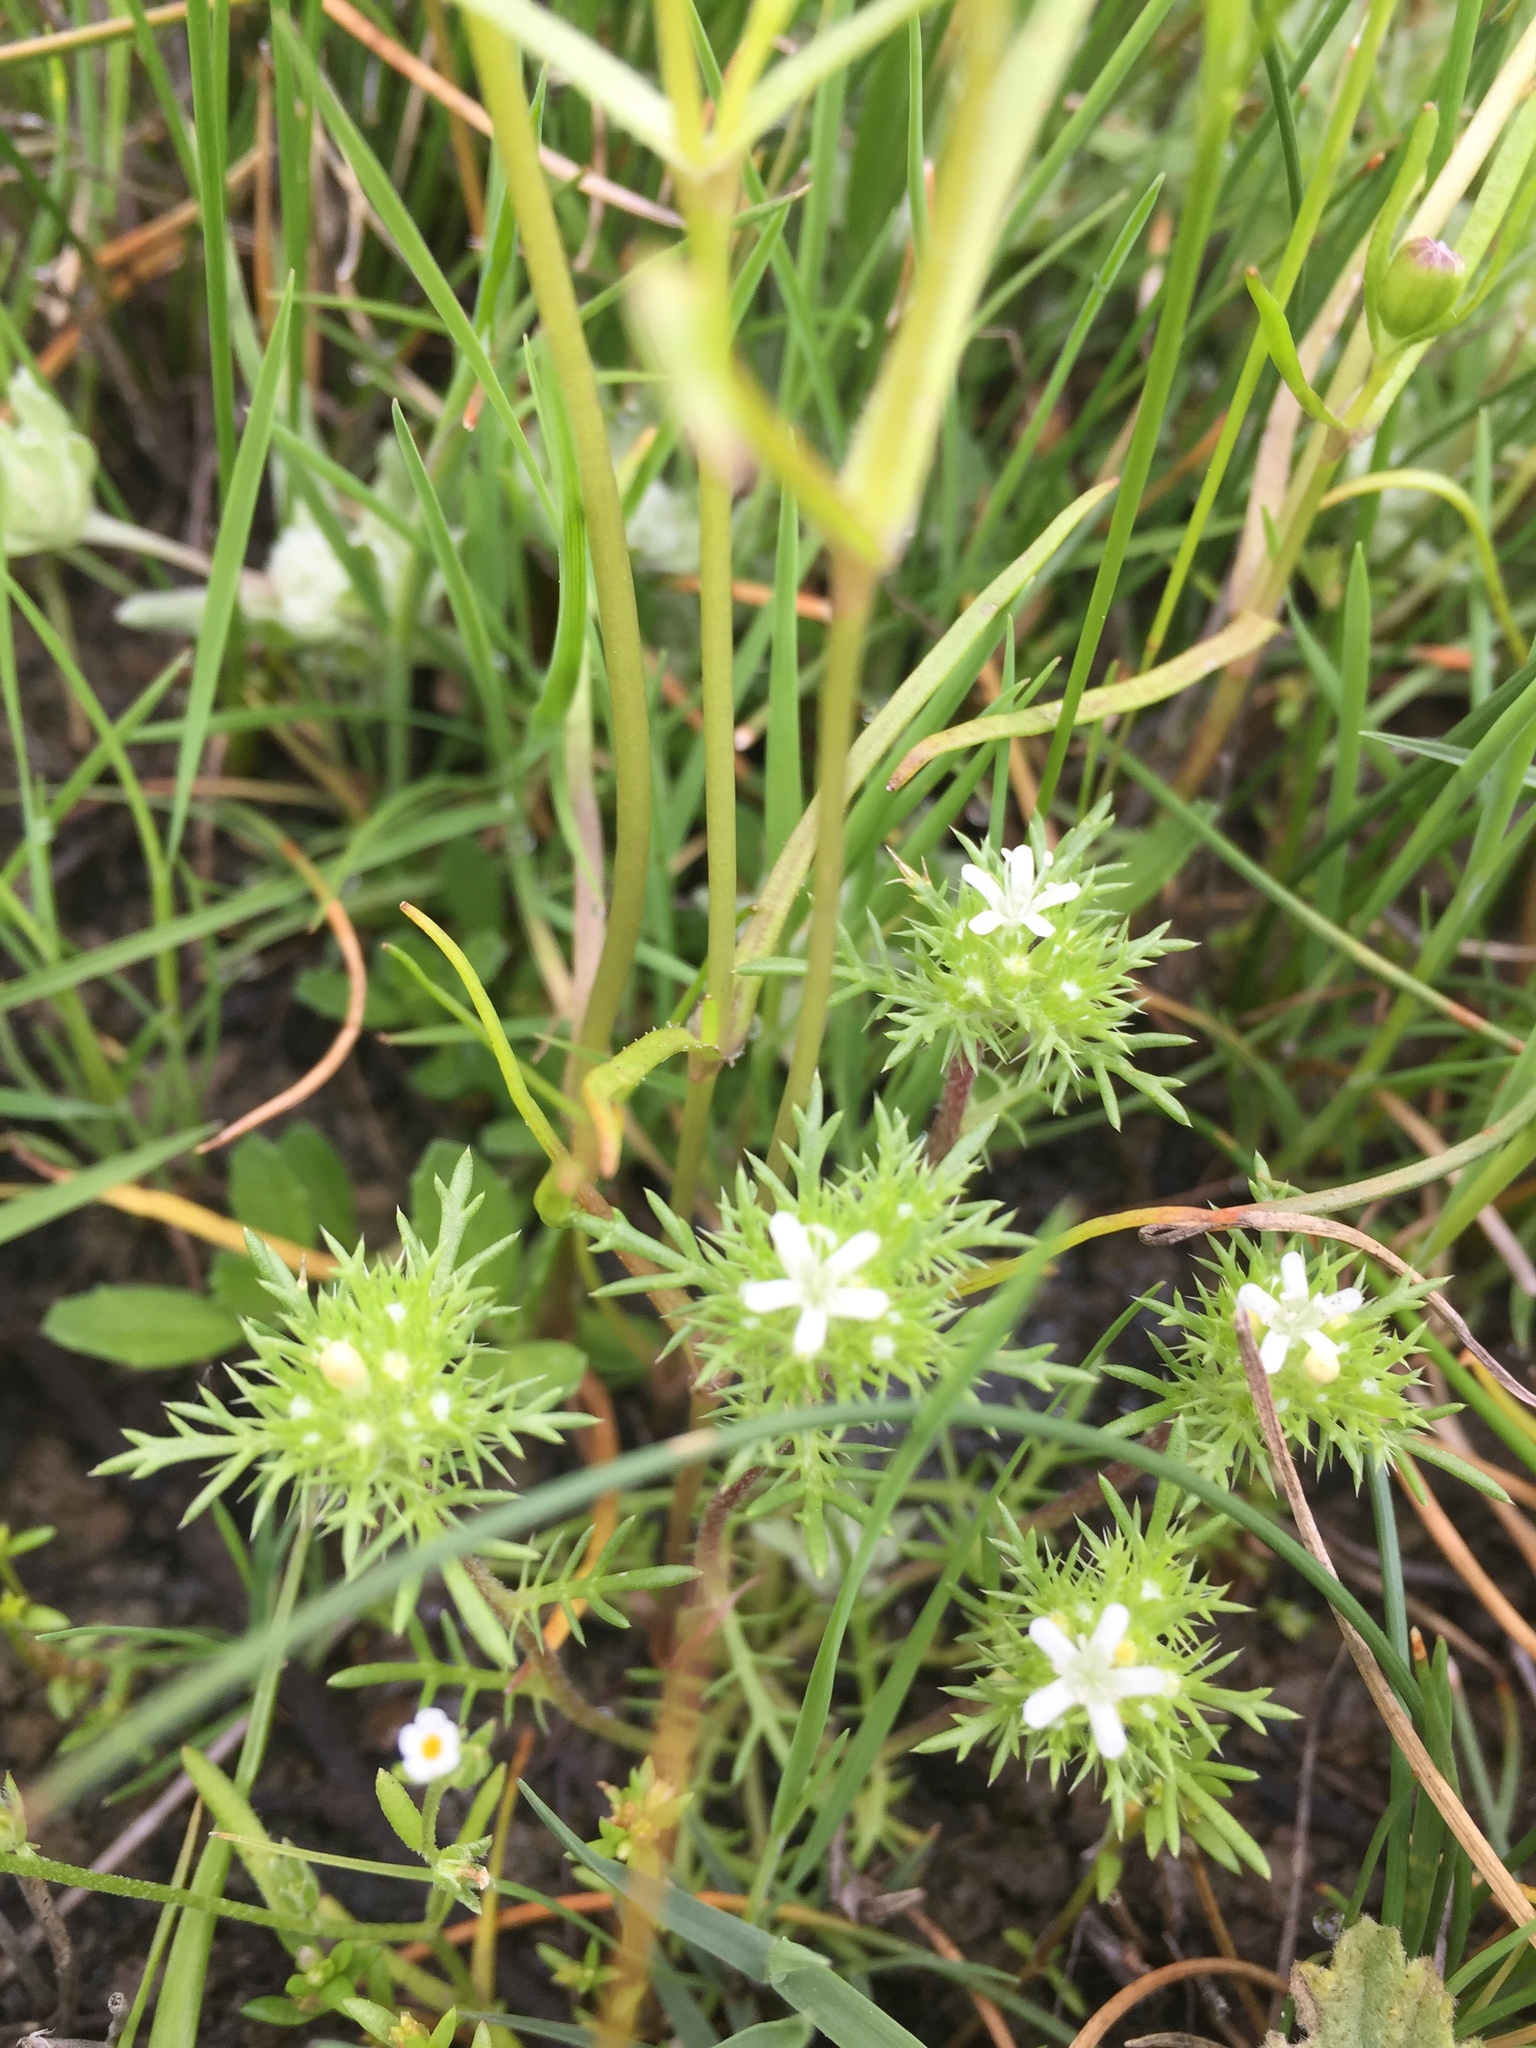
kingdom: Plantae
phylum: Tracheophyta
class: Magnoliopsida
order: Ericales
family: Polemoniaceae
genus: Navarretia
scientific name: Navarretia leucocephala
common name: White-flowered navarretia
